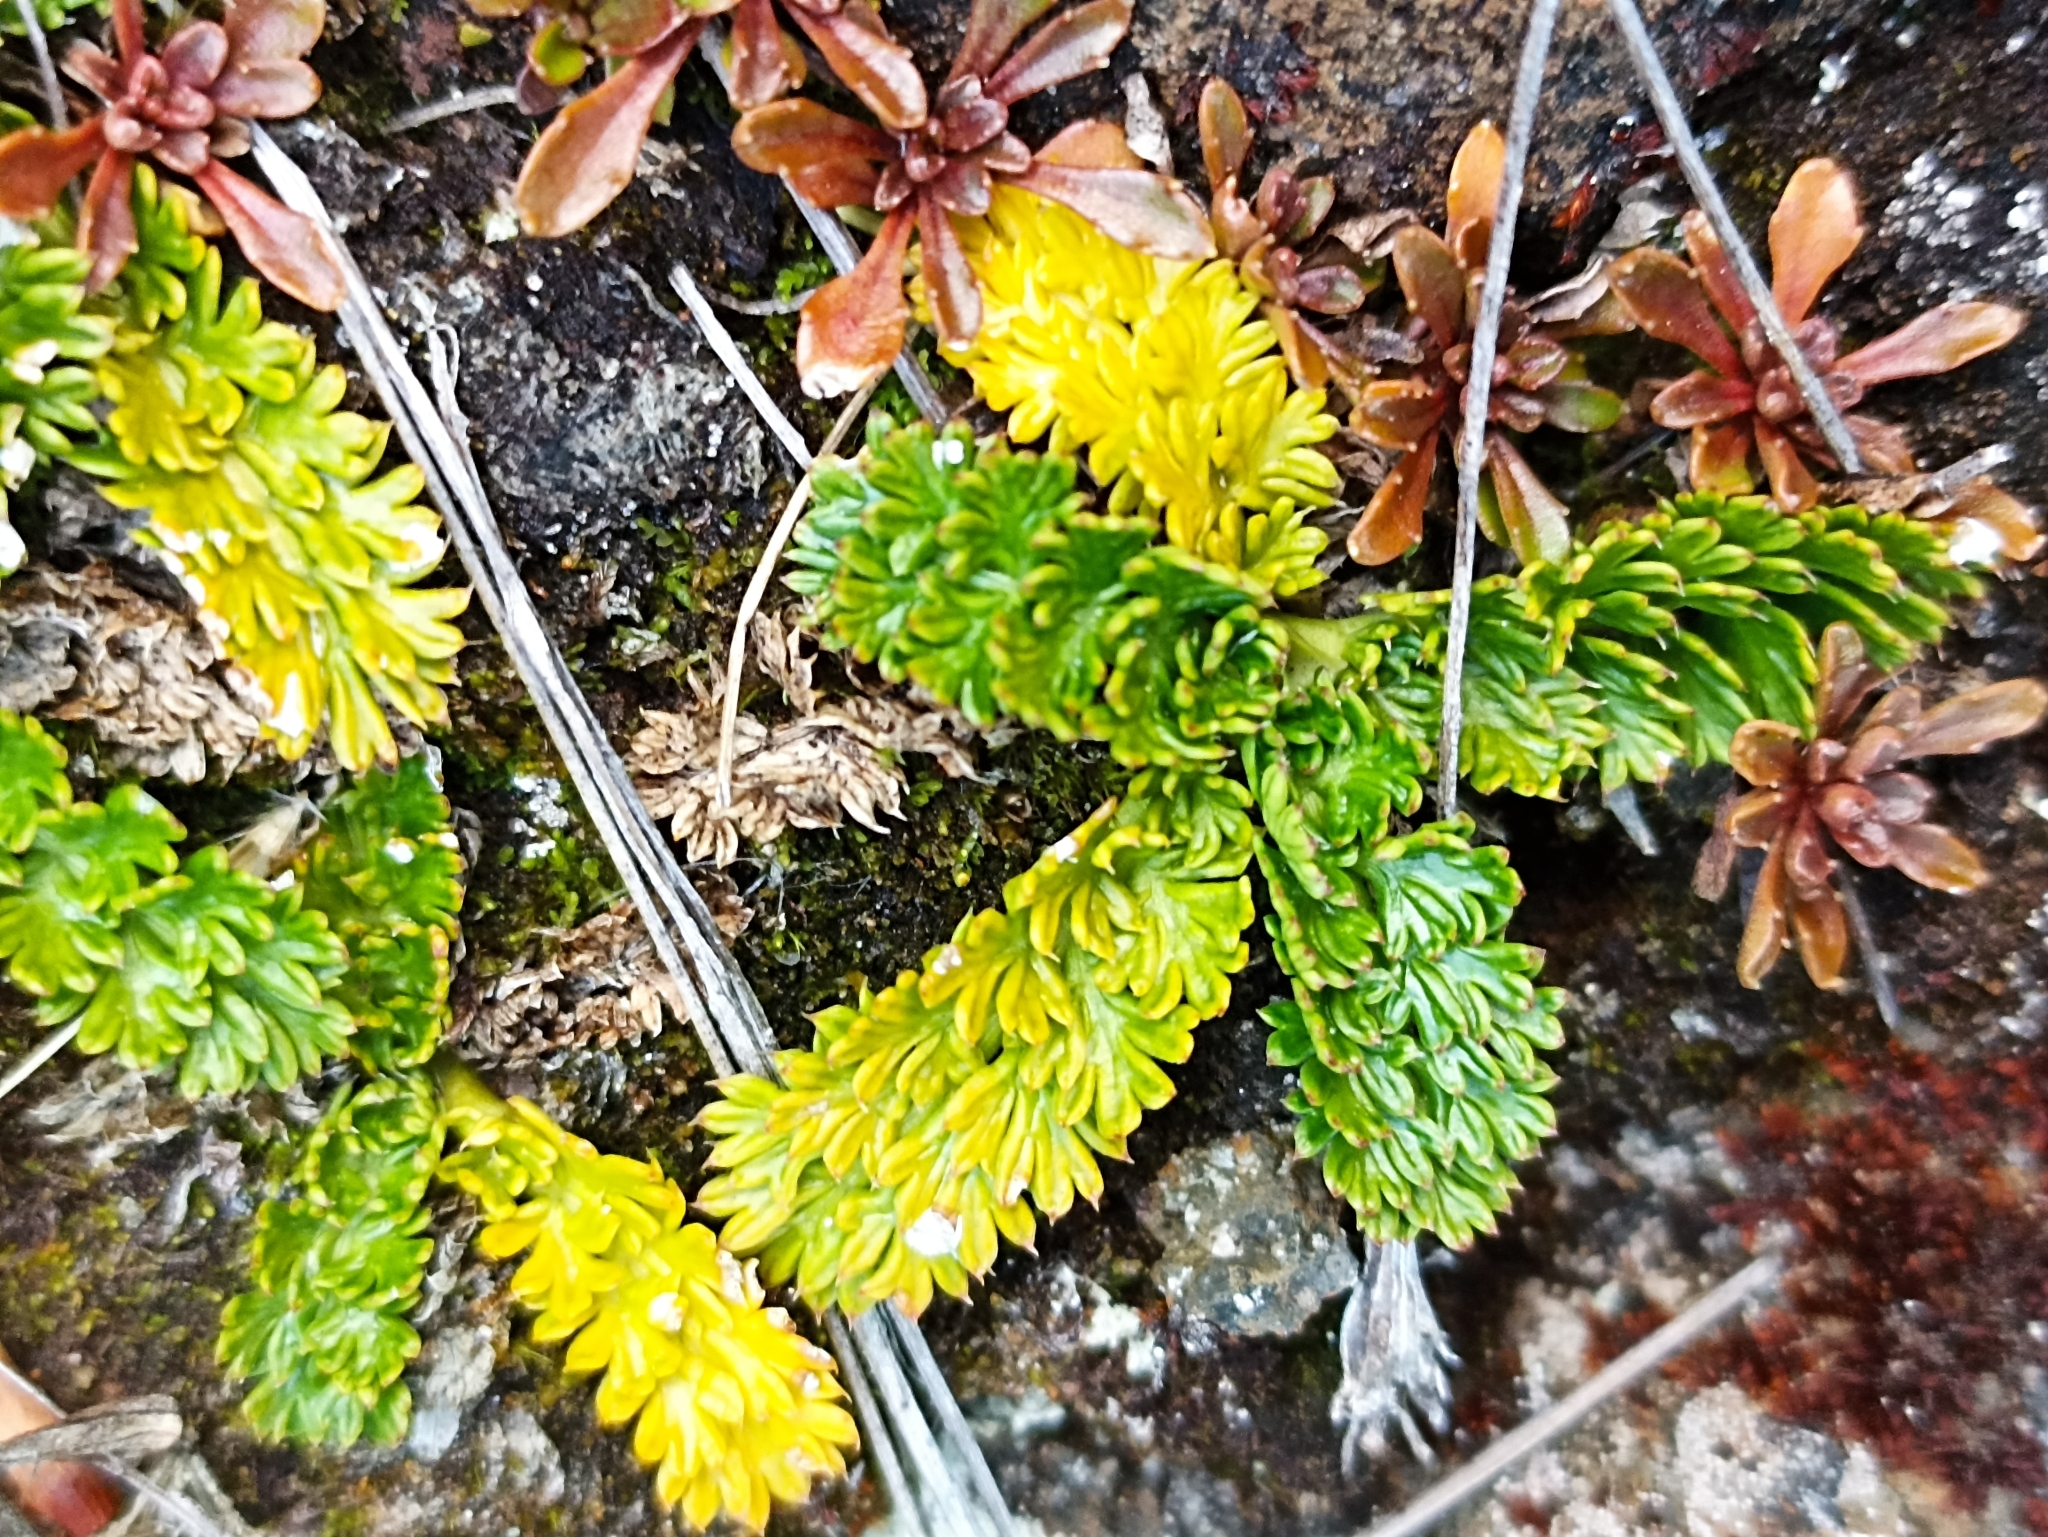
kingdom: Plantae
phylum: Tracheophyta
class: Magnoliopsida
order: Apiales
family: Apiaceae
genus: Anisotome
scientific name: Anisotome aromatica
